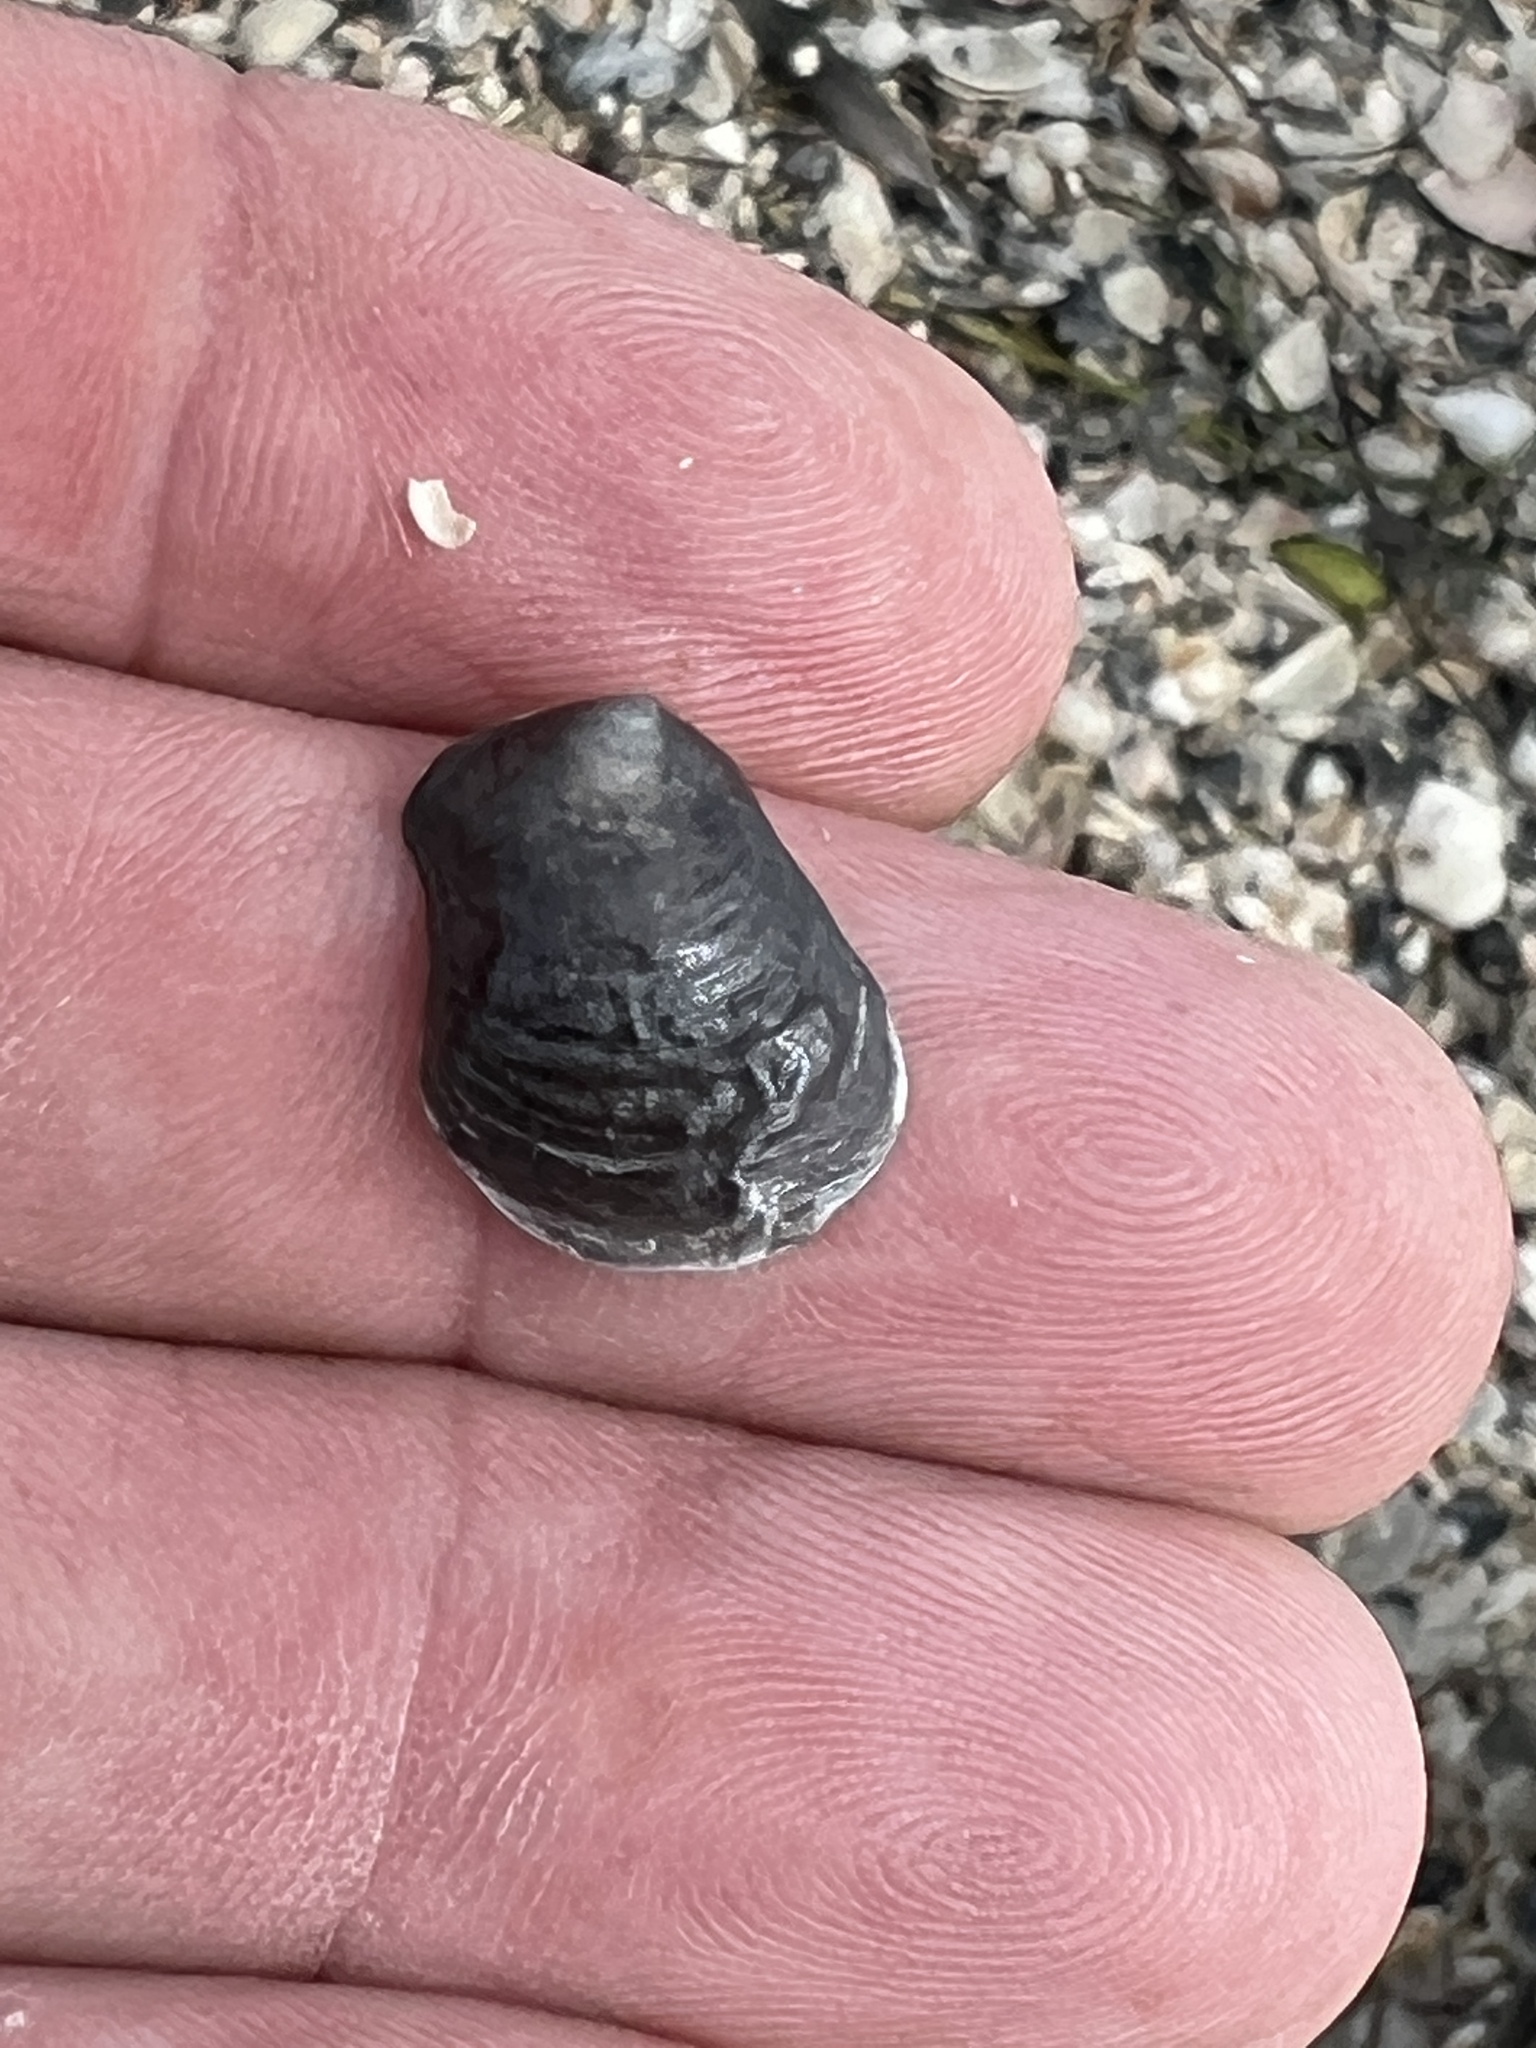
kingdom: Animalia
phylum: Mollusca
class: Bivalvia
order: Pectinida
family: Anomiidae
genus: Anomia
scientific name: Anomia simplex
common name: Common jingle shell
